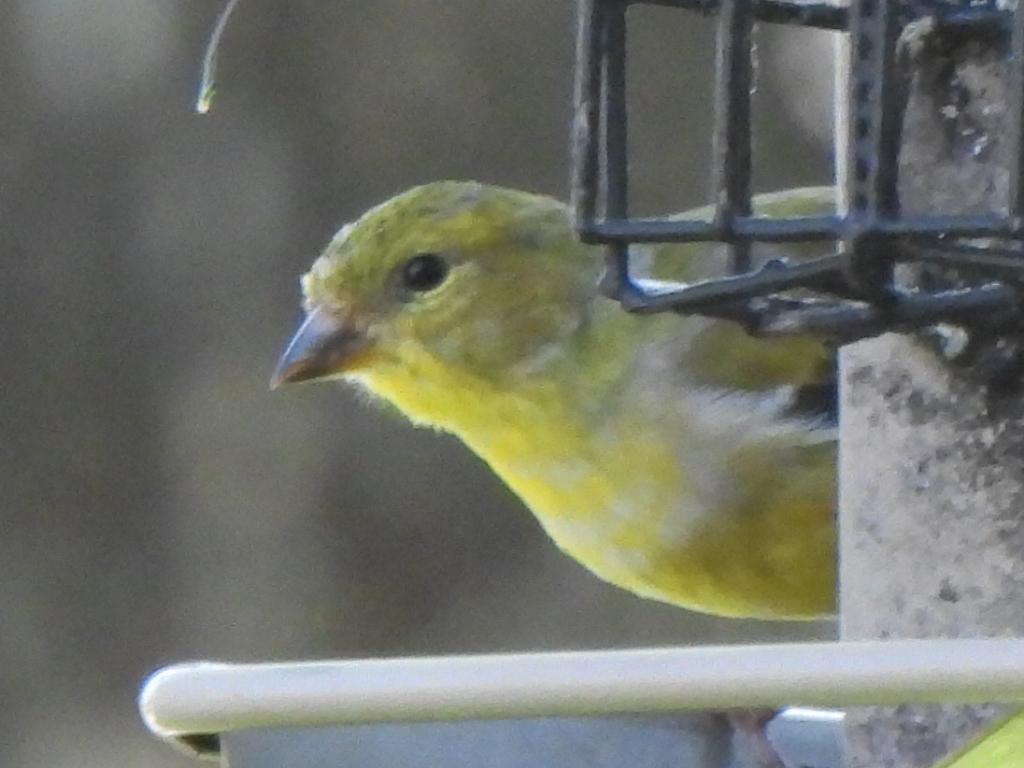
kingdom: Animalia
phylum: Chordata
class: Aves
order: Passeriformes
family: Fringillidae
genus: Spinus
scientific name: Spinus tristis
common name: American goldfinch
